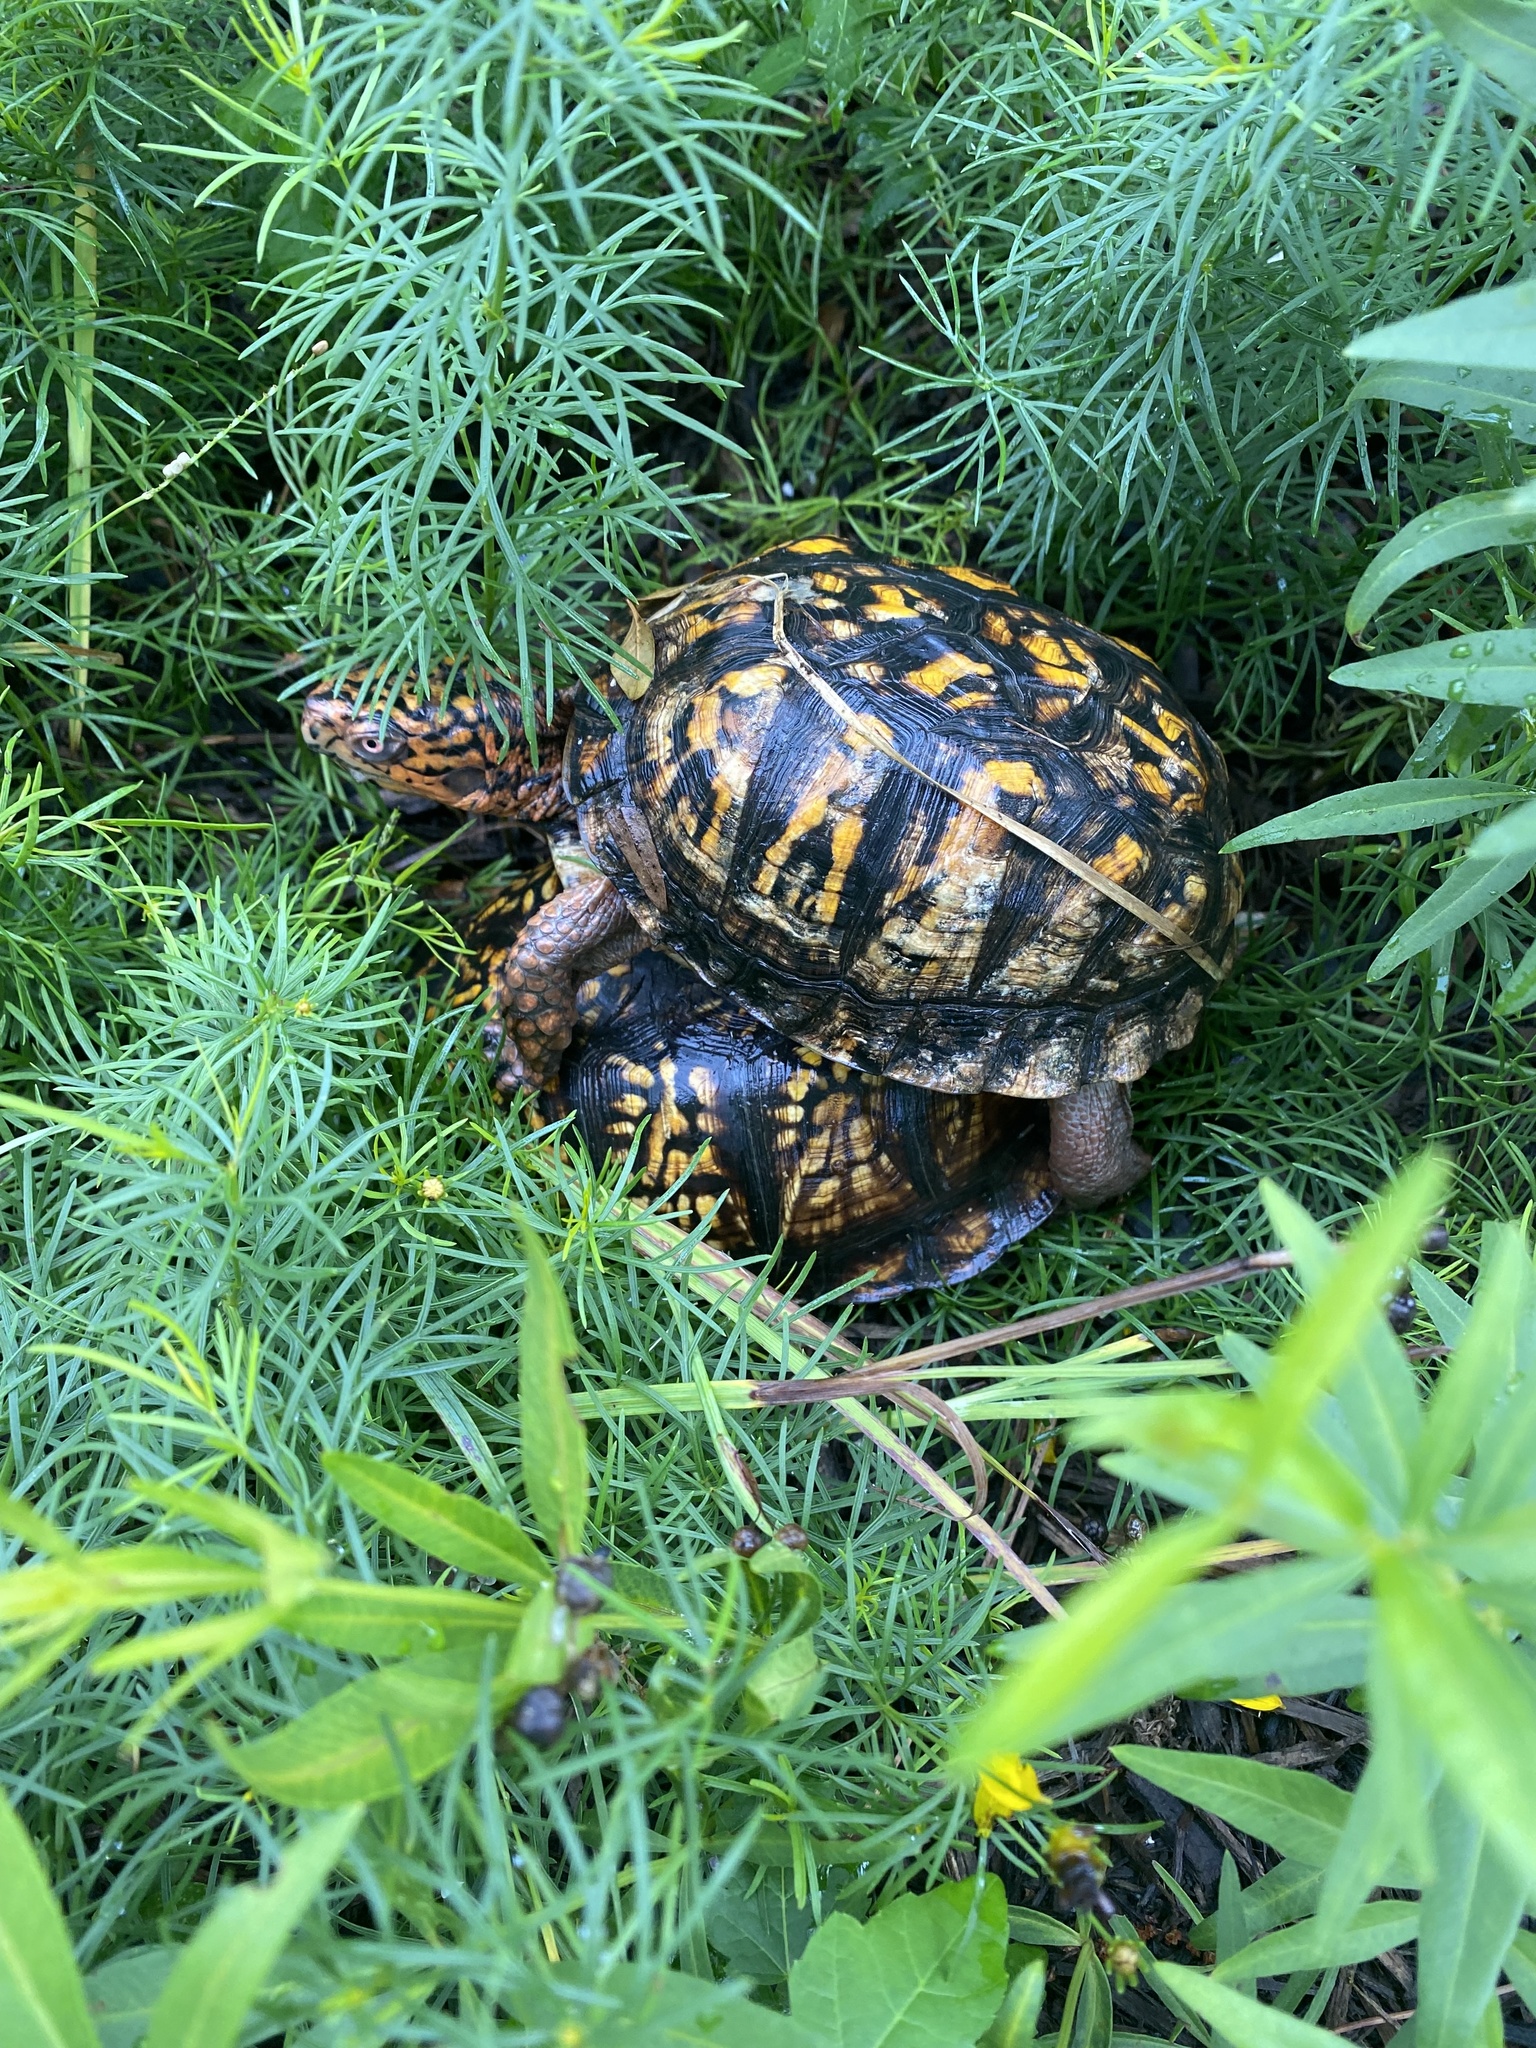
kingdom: Animalia
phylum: Chordata
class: Testudines
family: Emydidae
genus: Terrapene
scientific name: Terrapene carolina
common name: Common box turtle
